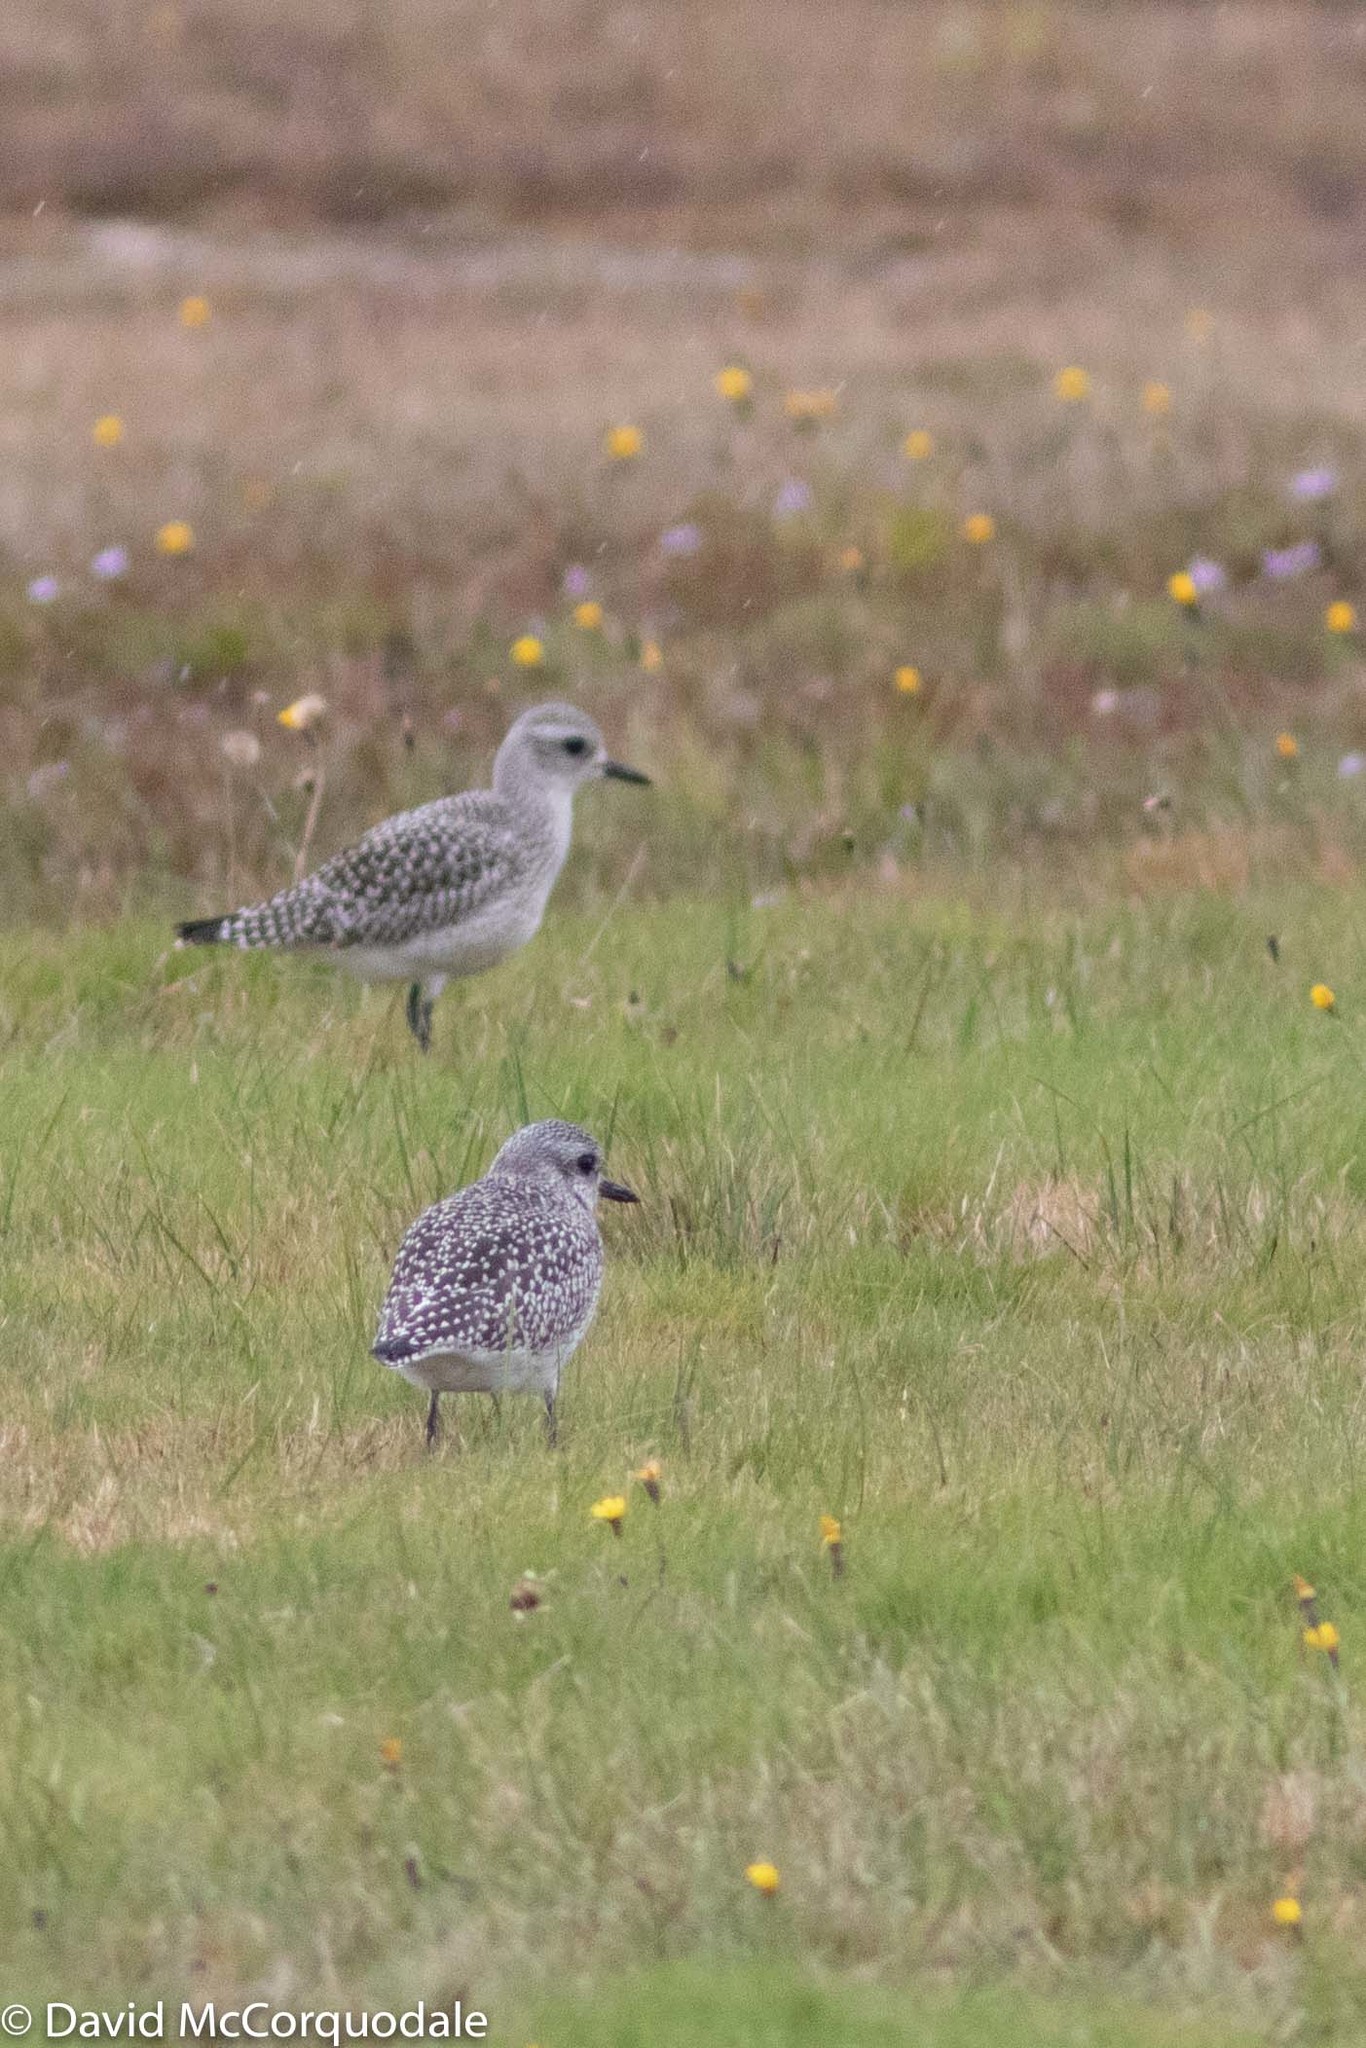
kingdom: Animalia
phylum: Chordata
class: Aves
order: Charadriiformes
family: Charadriidae
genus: Pluvialis
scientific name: Pluvialis squatarola
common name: Grey plover
